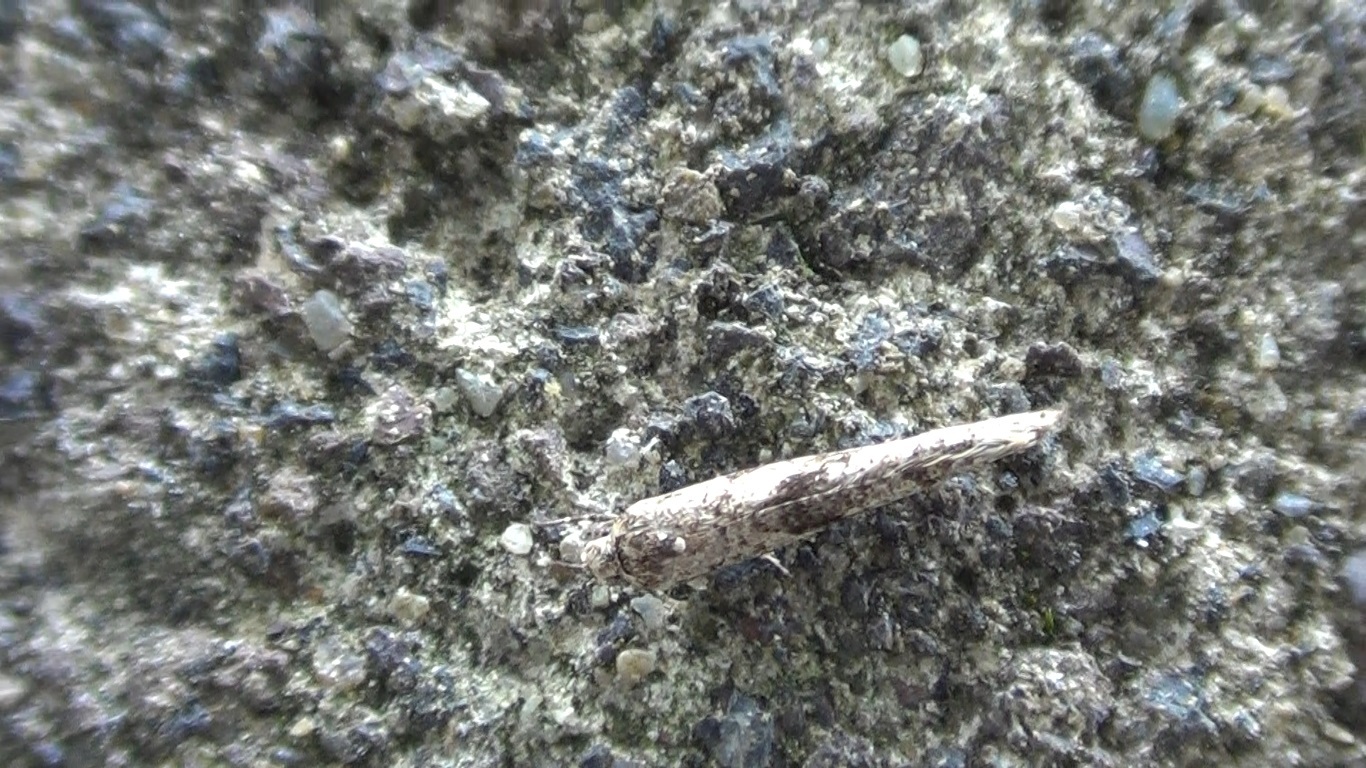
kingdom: Animalia
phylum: Arthropoda
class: Insecta
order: Lepidoptera
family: Praydidae
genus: Prays
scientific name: Prays citri
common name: Citrus flower moth
